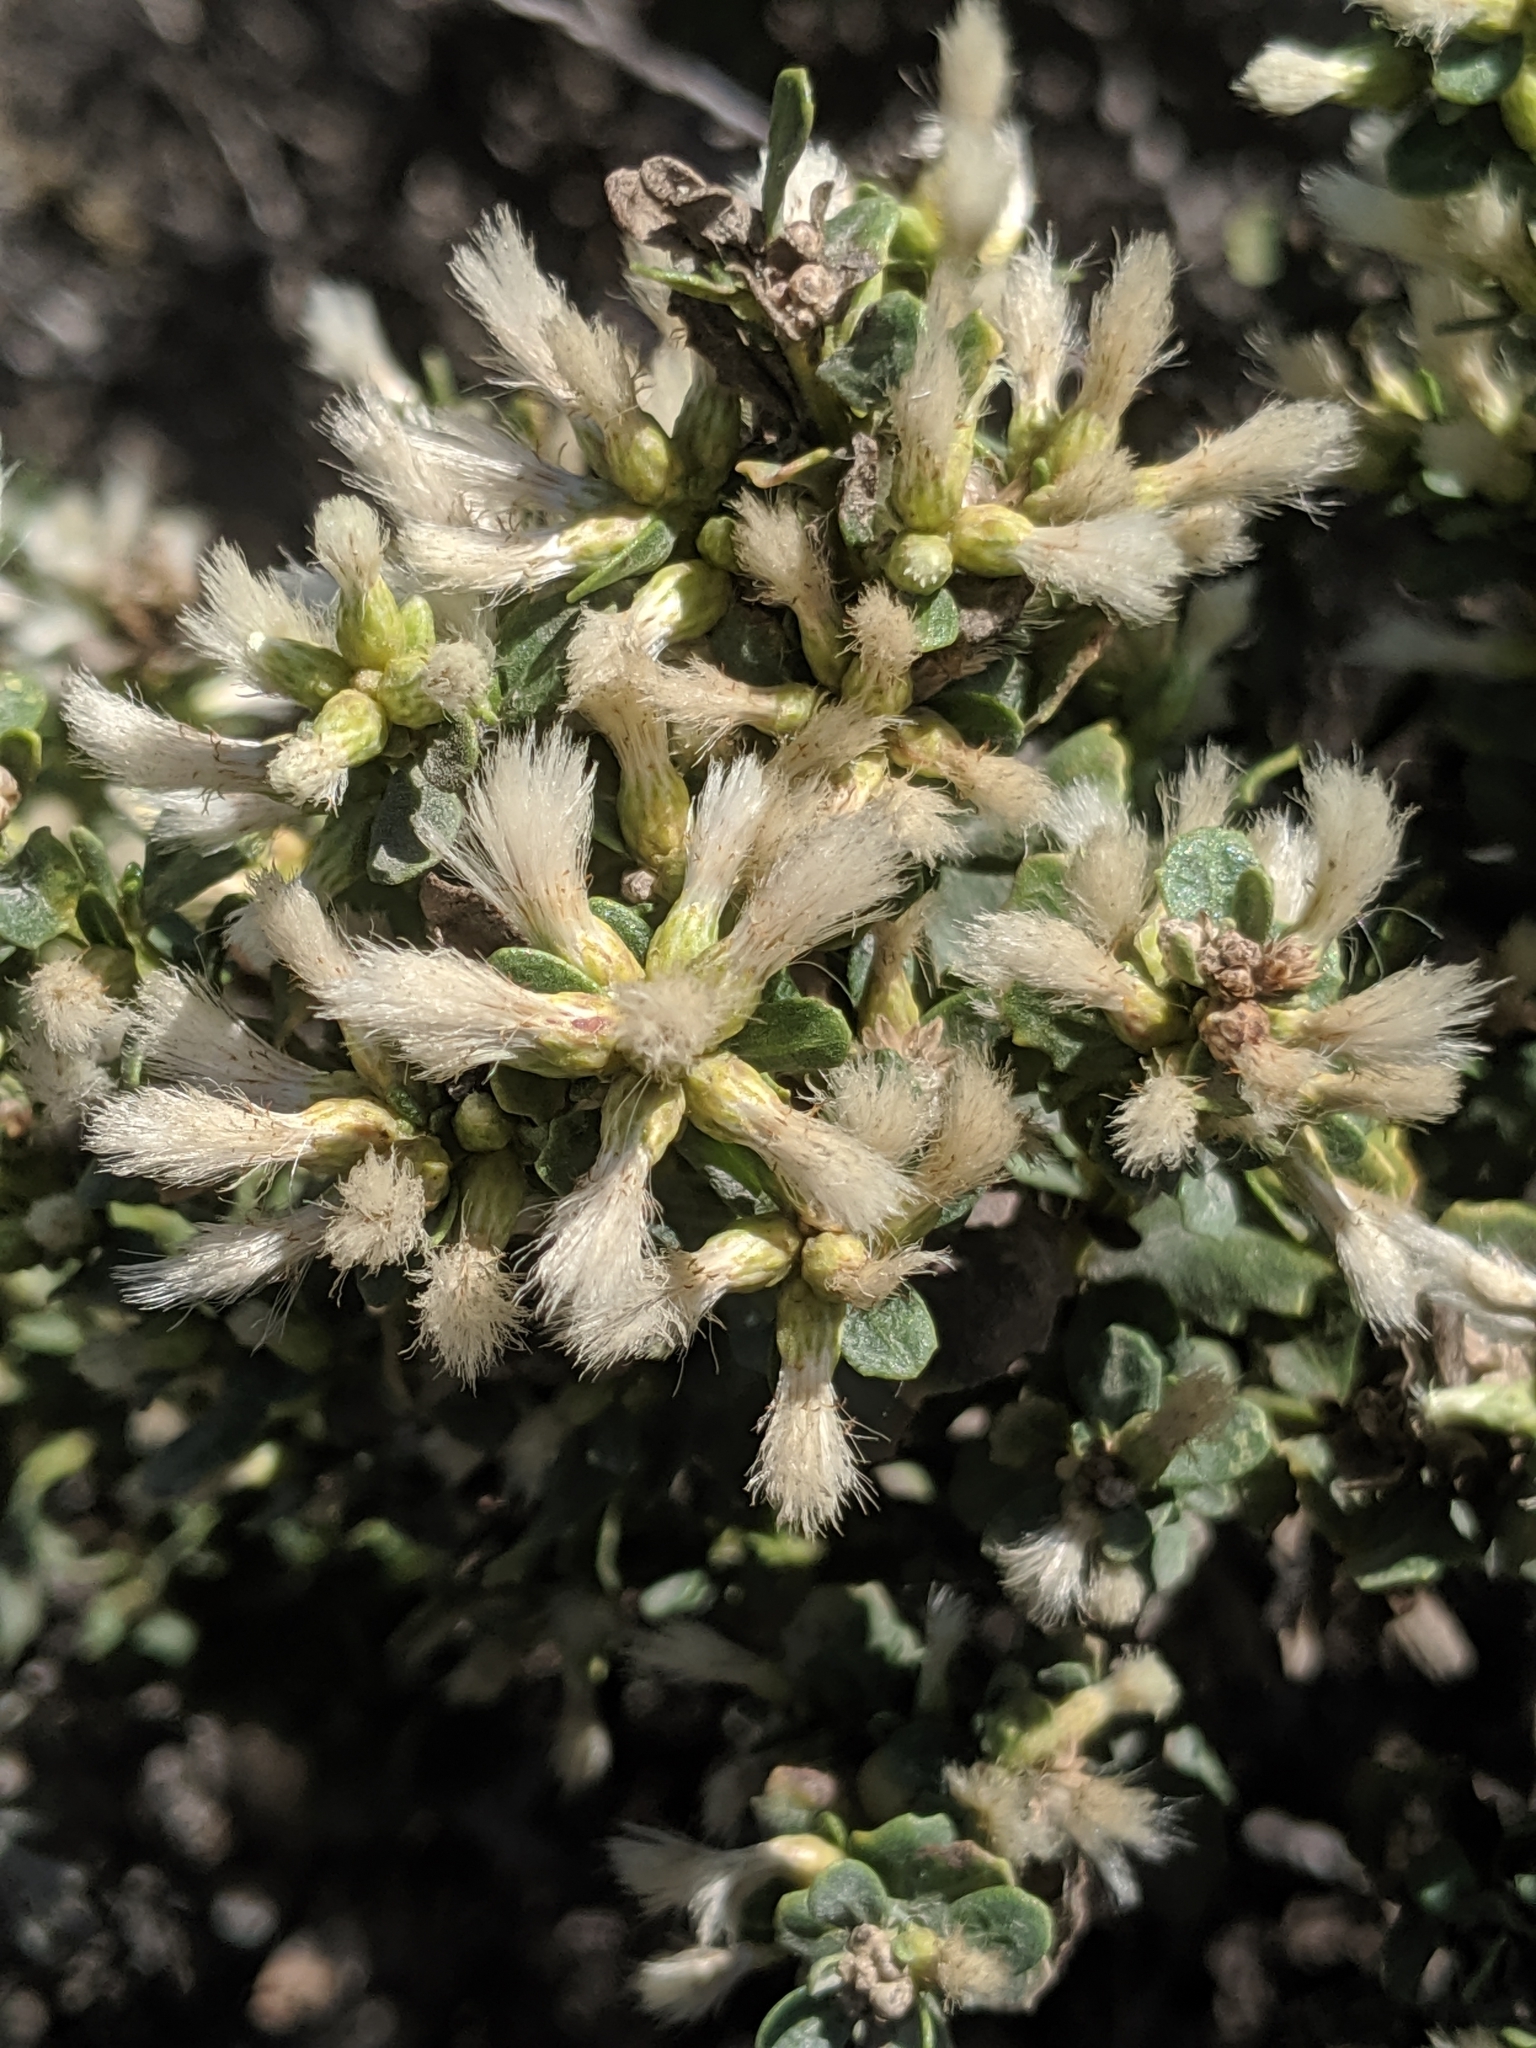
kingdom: Plantae
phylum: Tracheophyta
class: Magnoliopsida
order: Asterales
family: Asteraceae
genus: Baccharis
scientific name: Baccharis pilularis
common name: Coyotebrush
